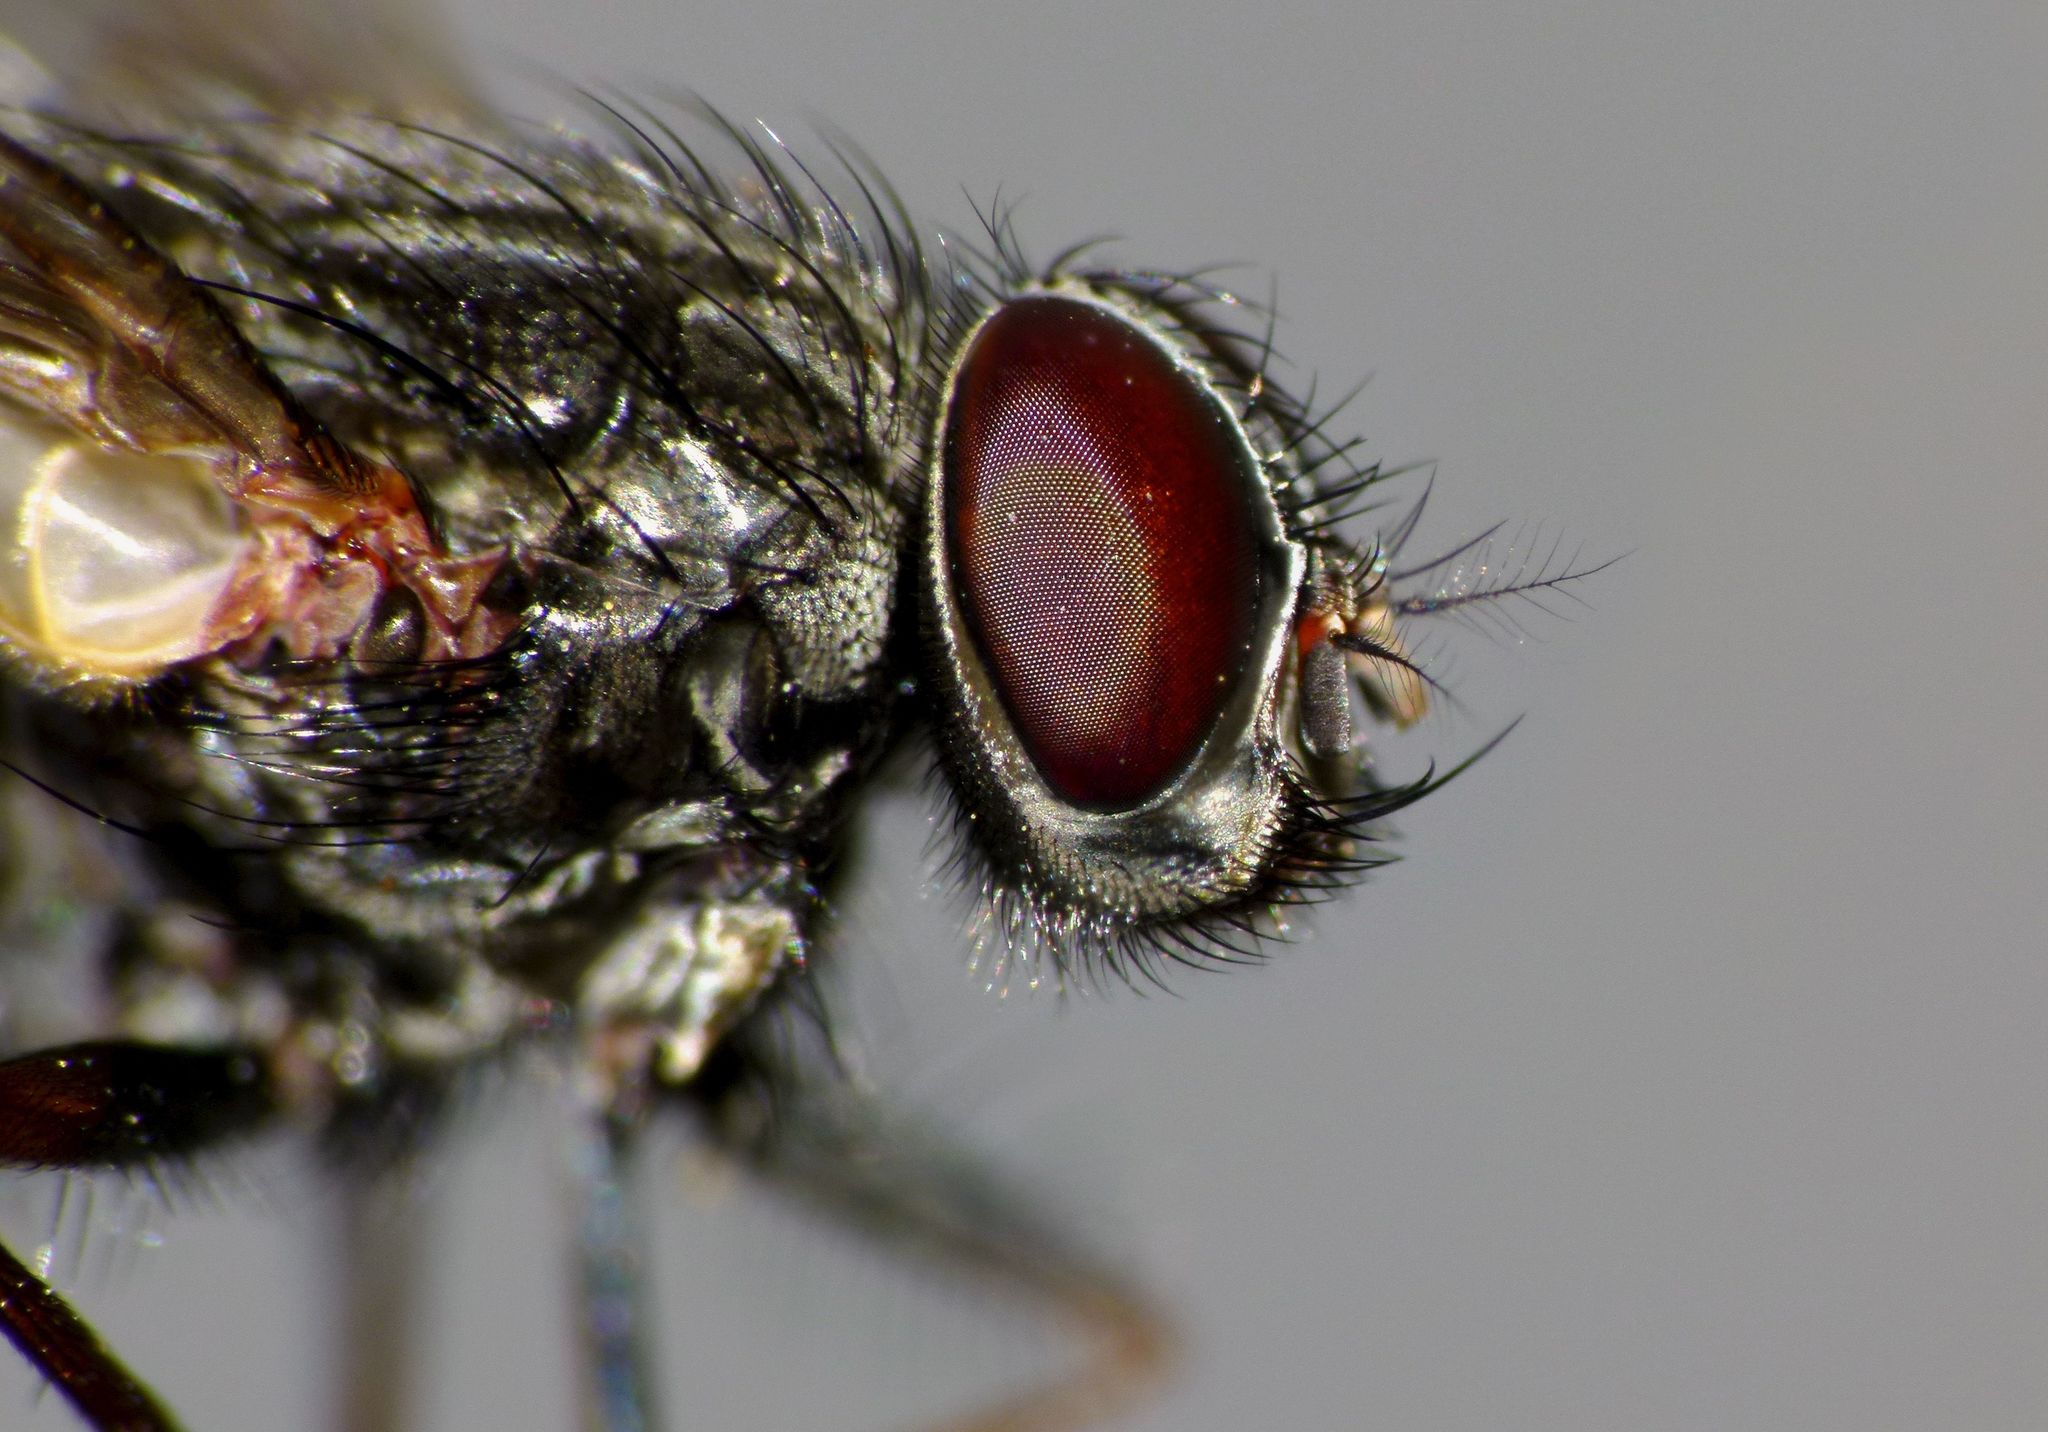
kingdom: Animalia
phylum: Arthropoda
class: Insecta
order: Diptera
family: Muscidae
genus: Muscina
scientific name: Muscina stabulans
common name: False stable fly
